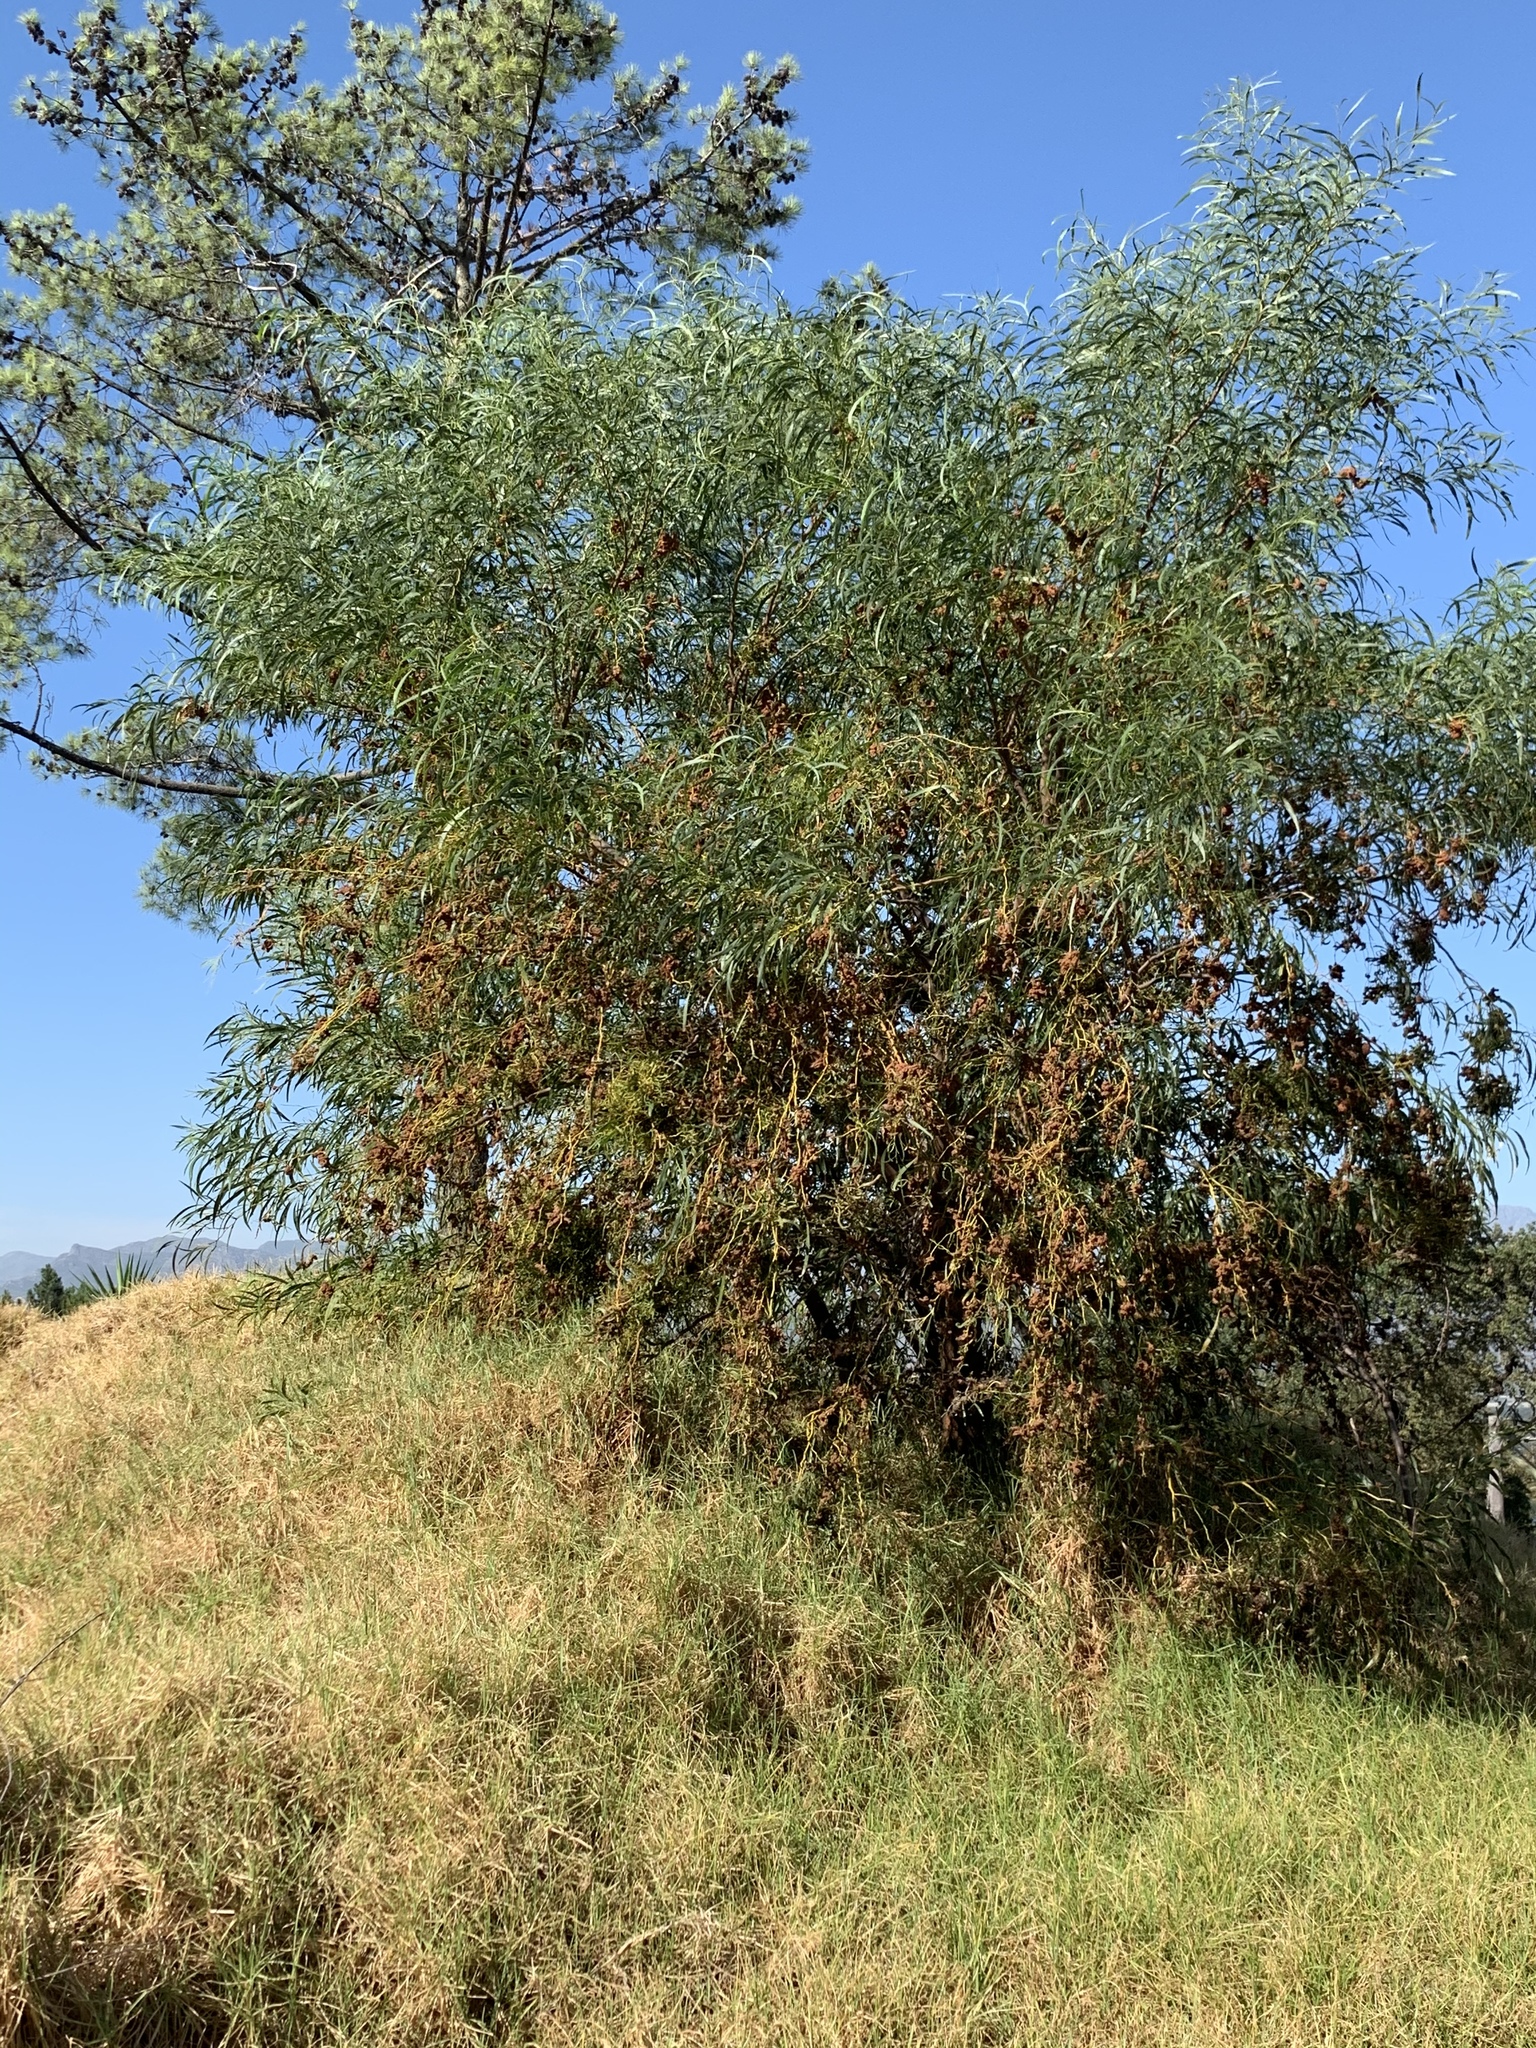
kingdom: Plantae
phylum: Tracheophyta
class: Magnoliopsida
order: Fabales
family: Fabaceae
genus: Acacia
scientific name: Acacia saligna
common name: Orange wattle
